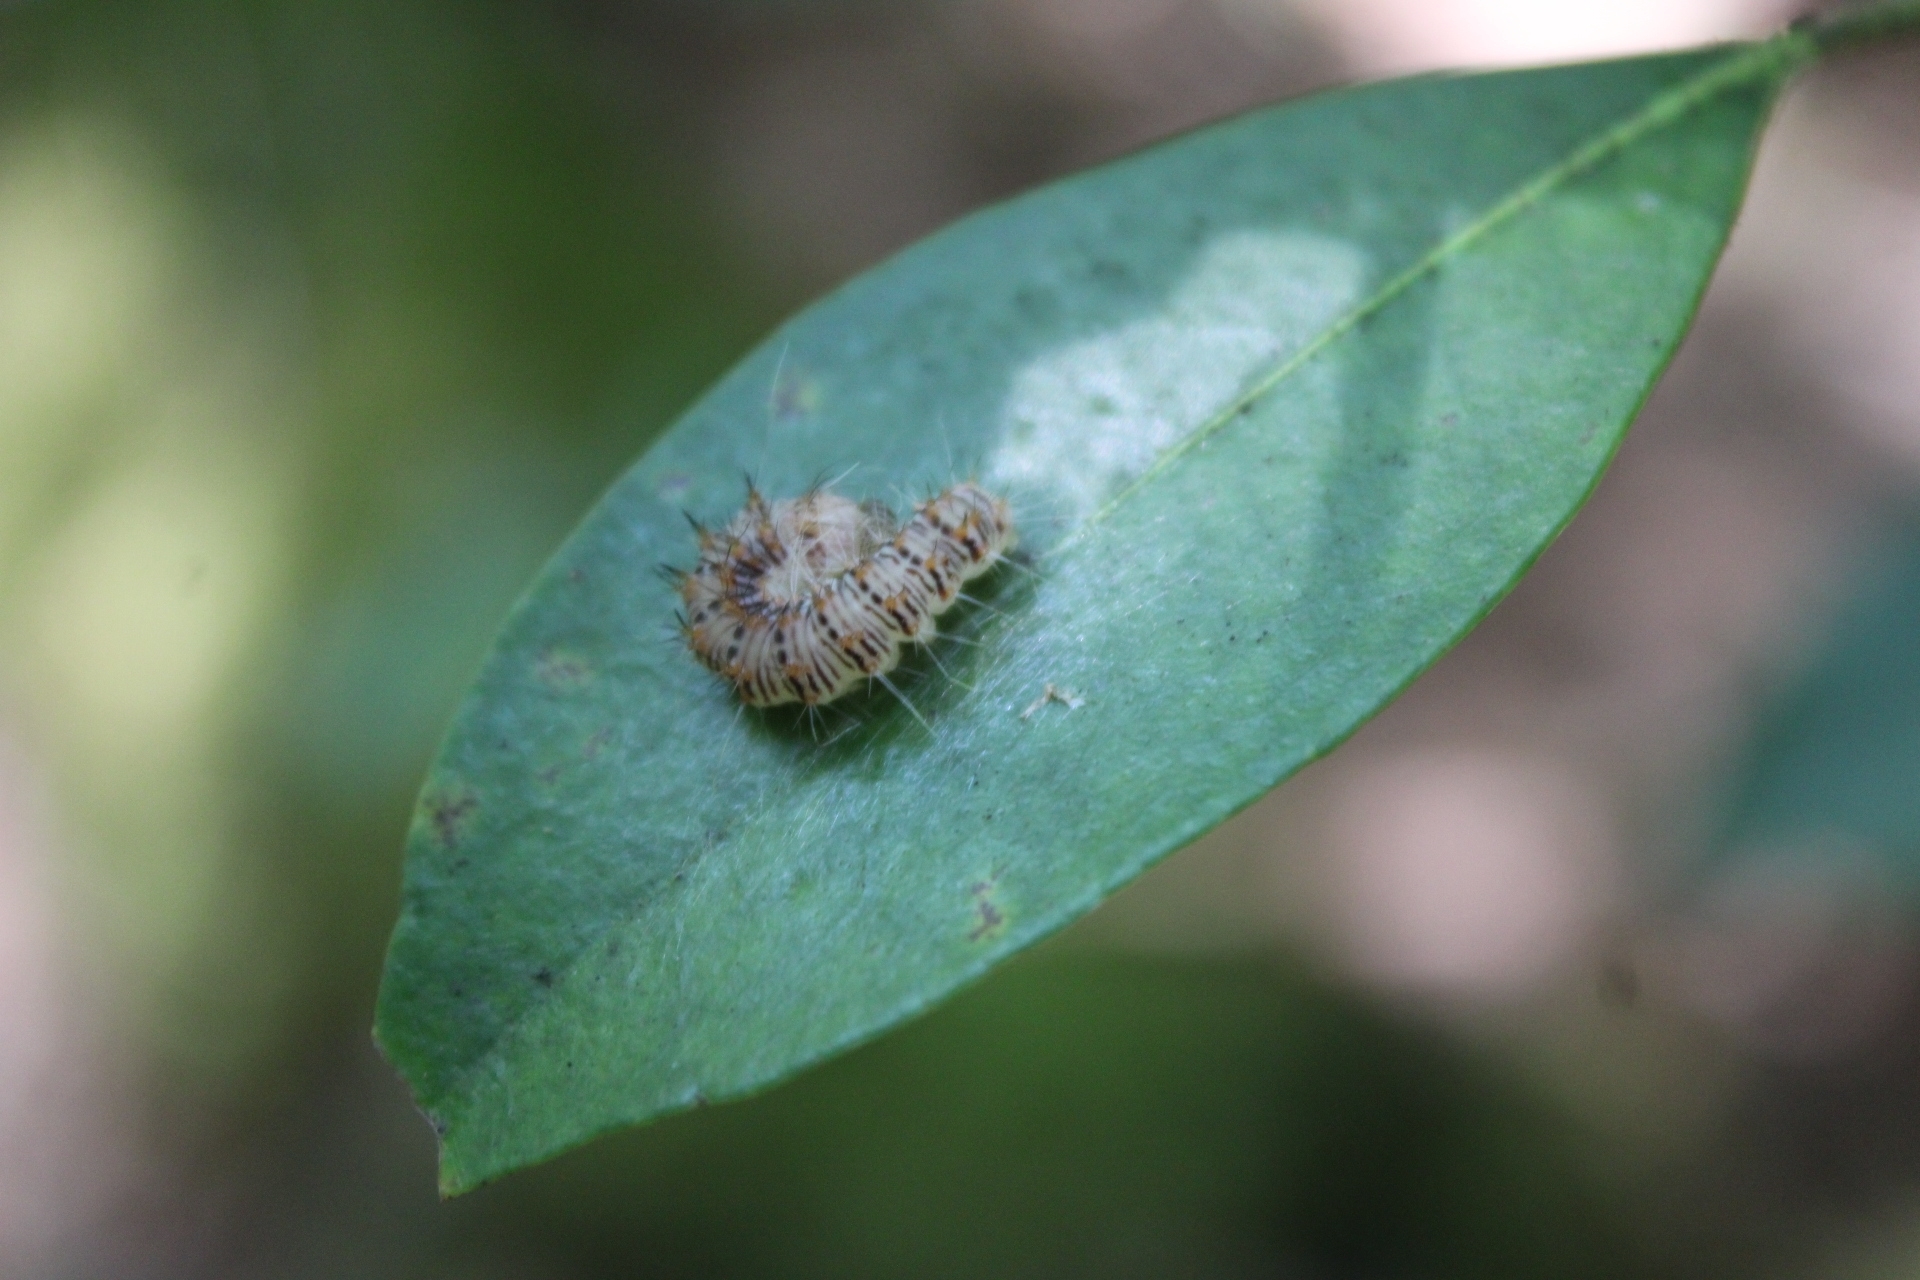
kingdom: Animalia
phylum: Arthropoda
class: Insecta
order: Lepidoptera
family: Noctuidae
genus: Acronicta
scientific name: Acronicta retardata
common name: Maple dagger
